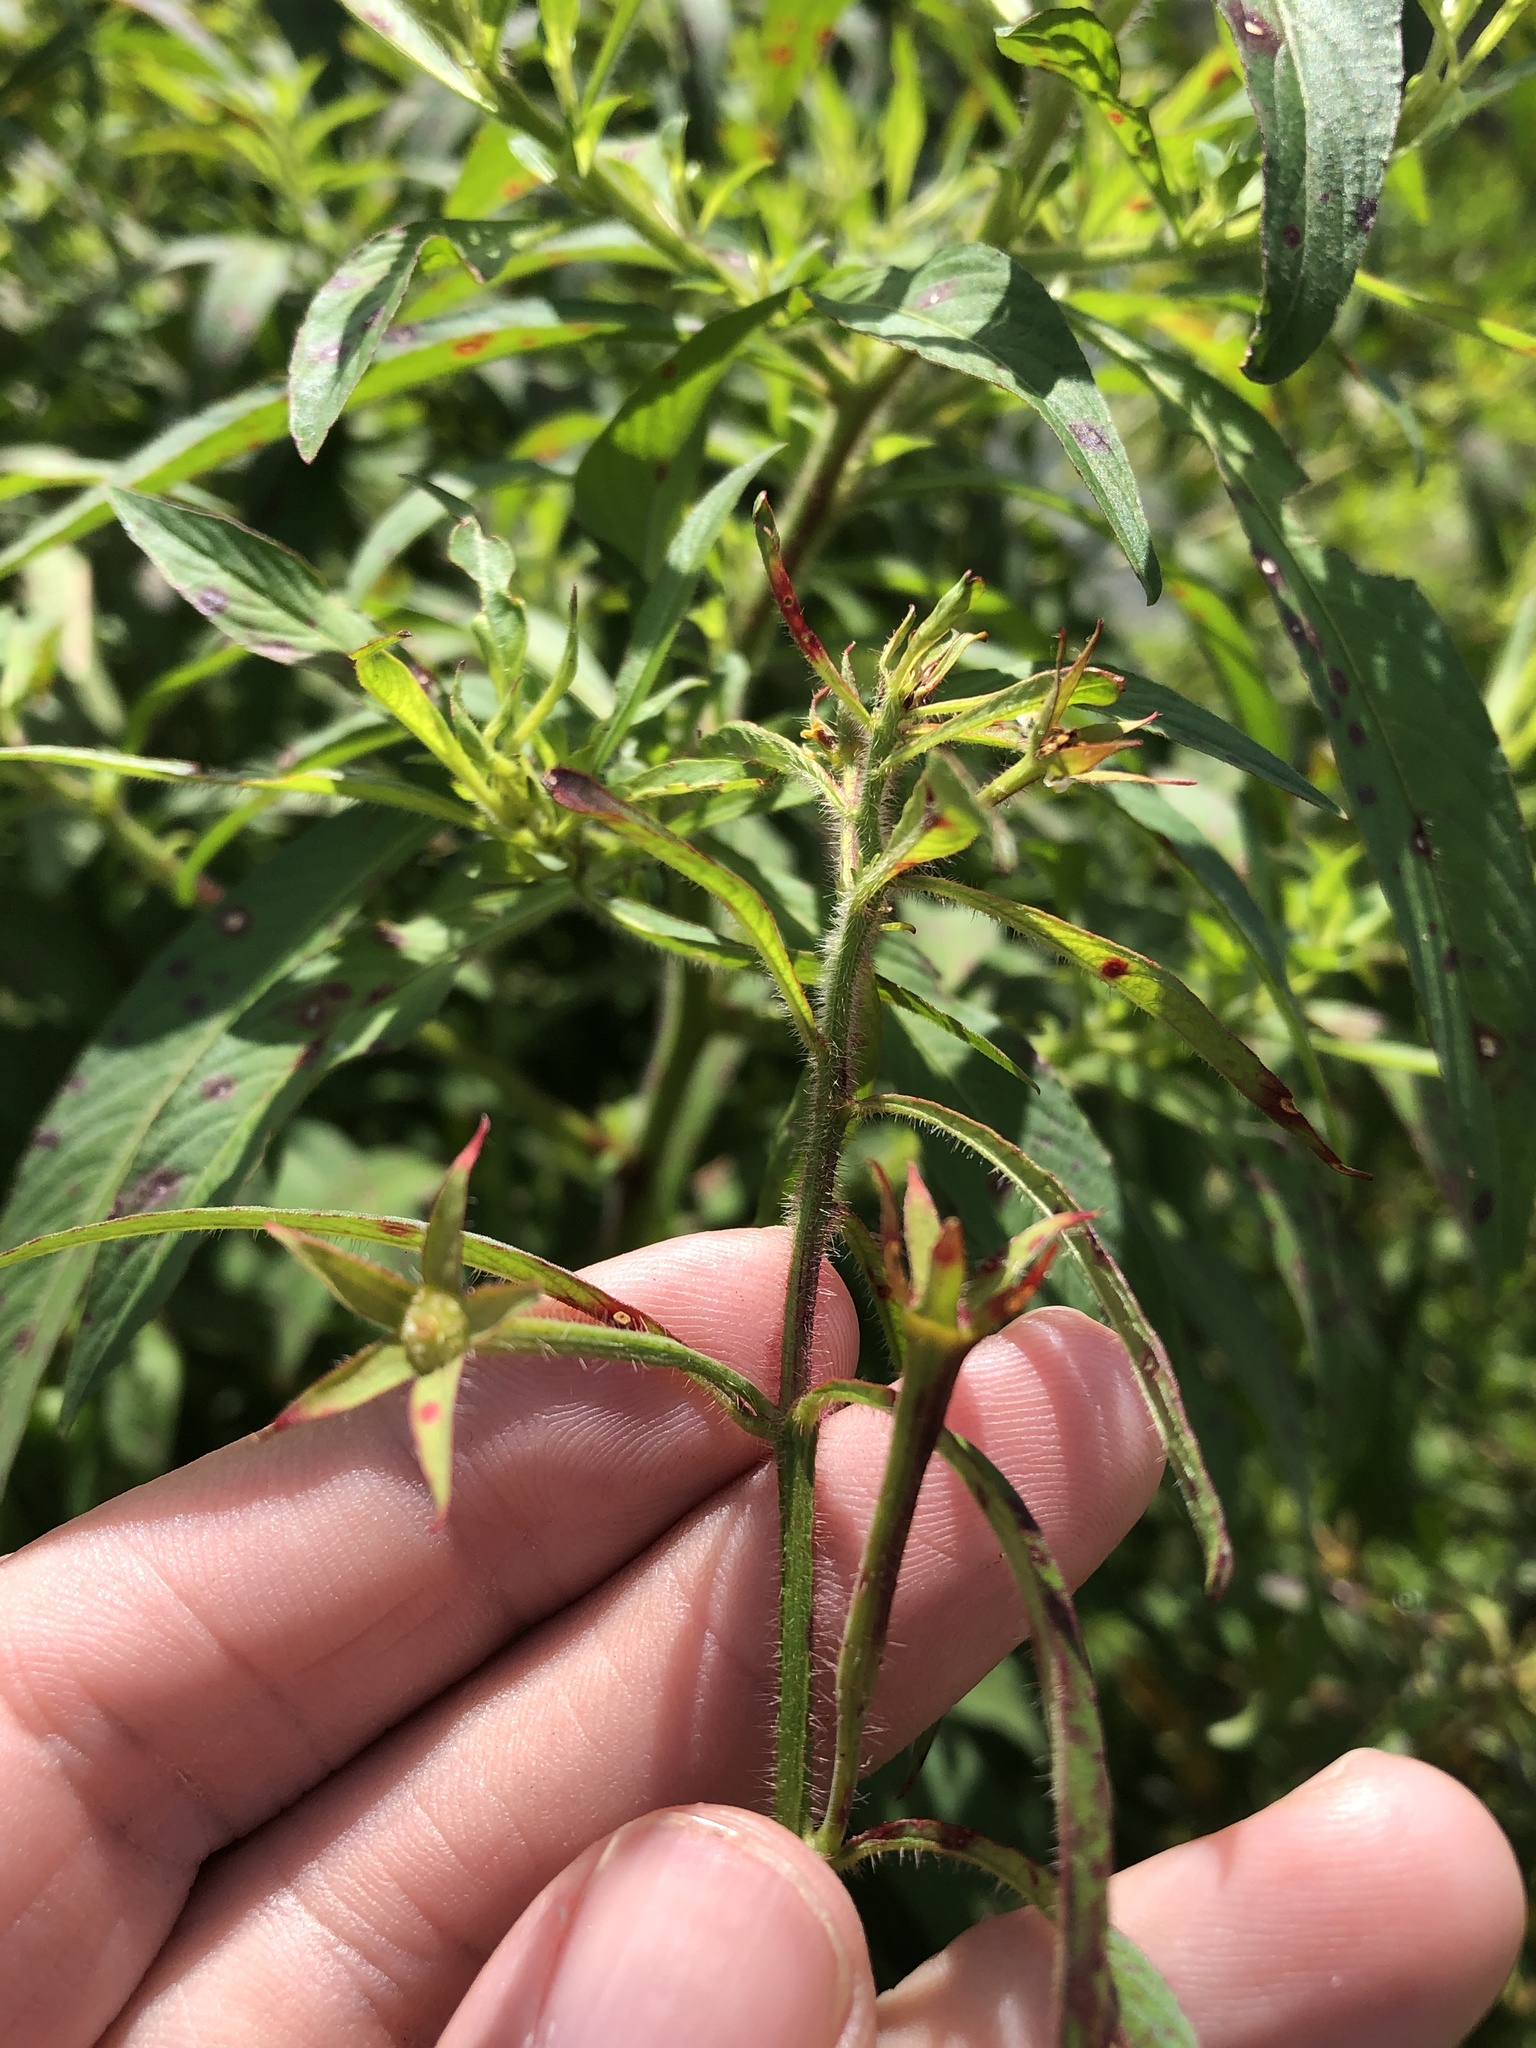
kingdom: Plantae
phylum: Tracheophyta
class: Magnoliopsida
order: Myrtales
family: Onagraceae
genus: Ludwigia
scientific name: Ludwigia grandiflora
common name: Water primrose
